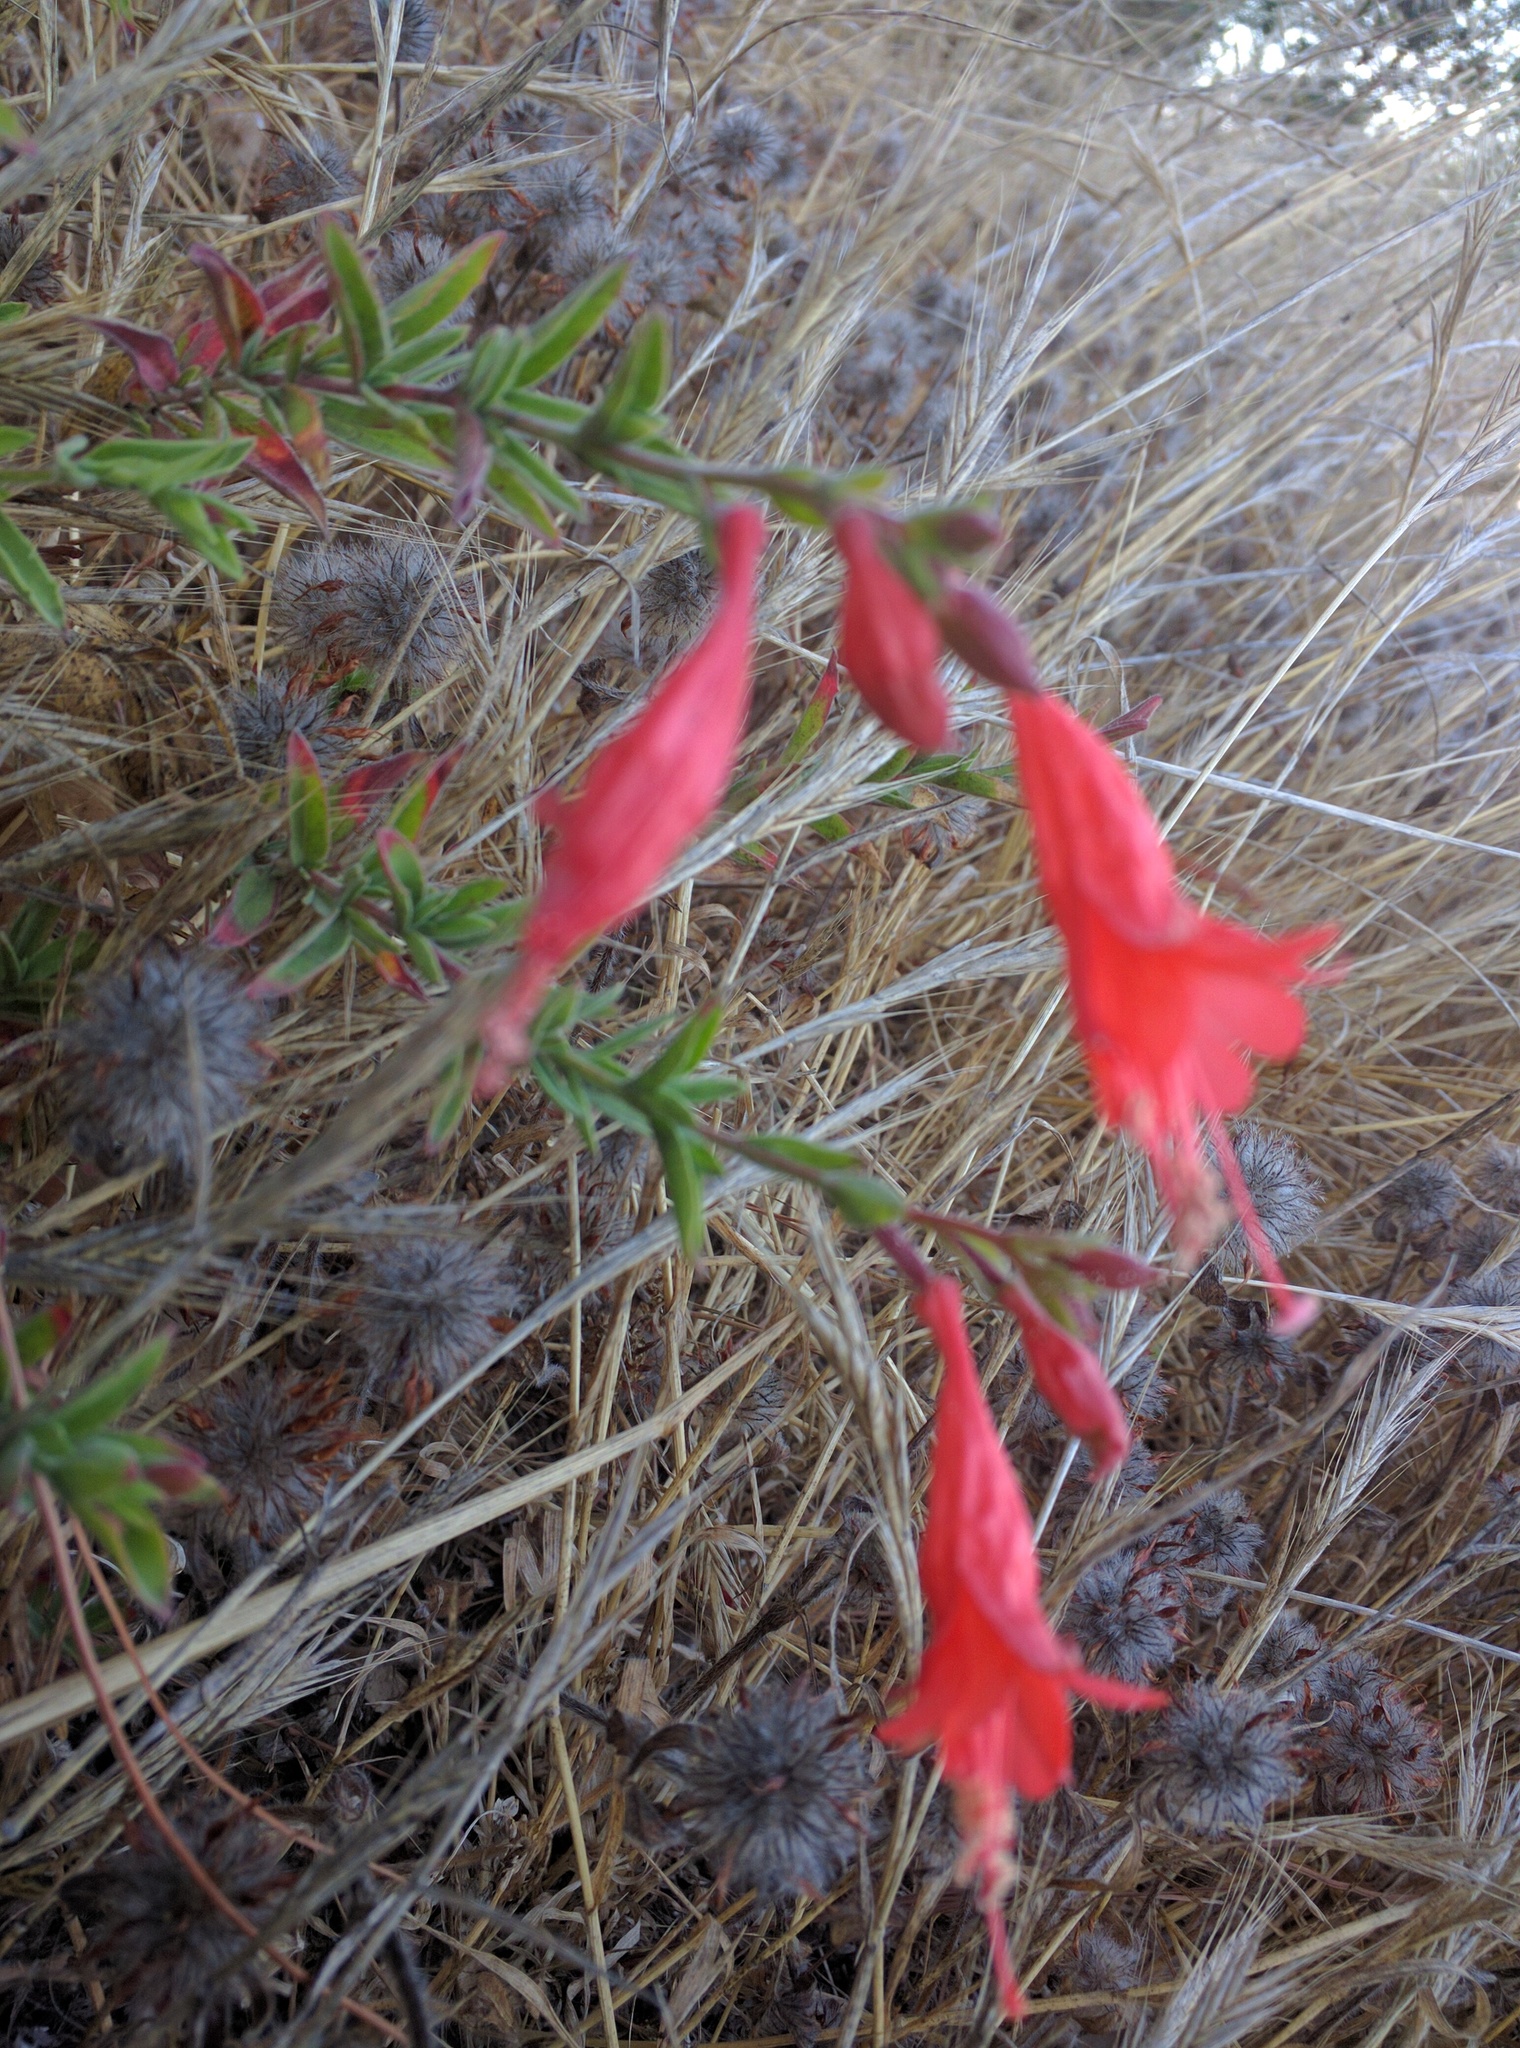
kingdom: Plantae
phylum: Tracheophyta
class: Magnoliopsida
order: Myrtales
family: Onagraceae
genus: Epilobium
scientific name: Epilobium canum
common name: California-fuchsia
